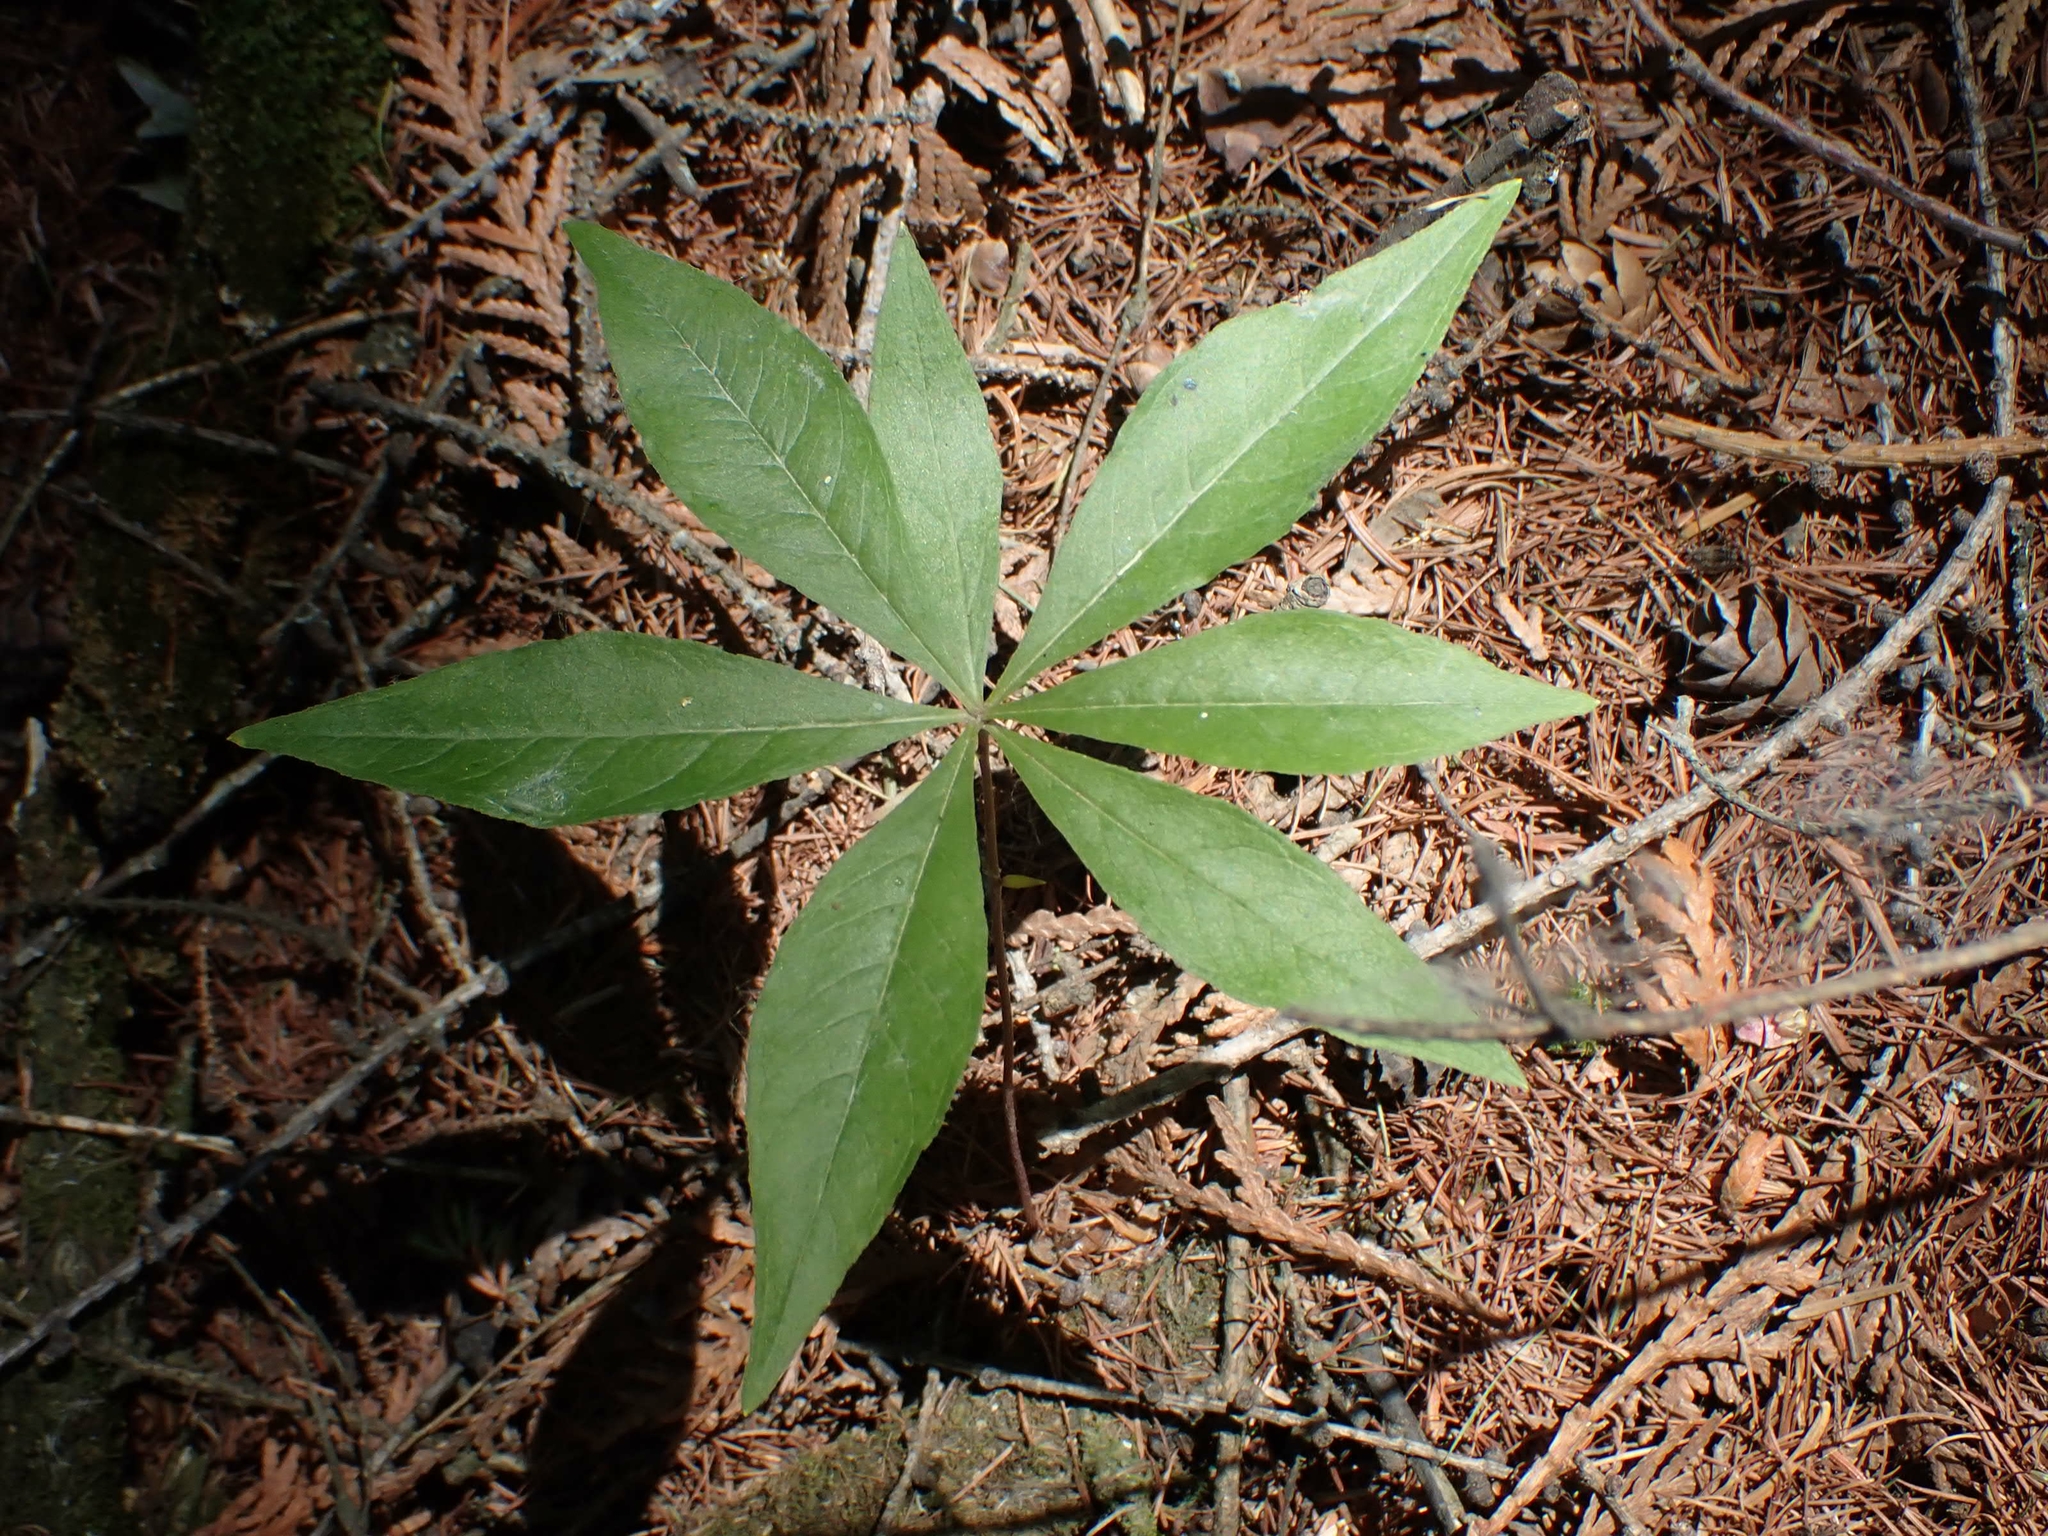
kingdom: Plantae
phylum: Tracheophyta
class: Magnoliopsida
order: Ericales
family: Primulaceae
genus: Lysimachia
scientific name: Lysimachia borealis
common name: American starflower
